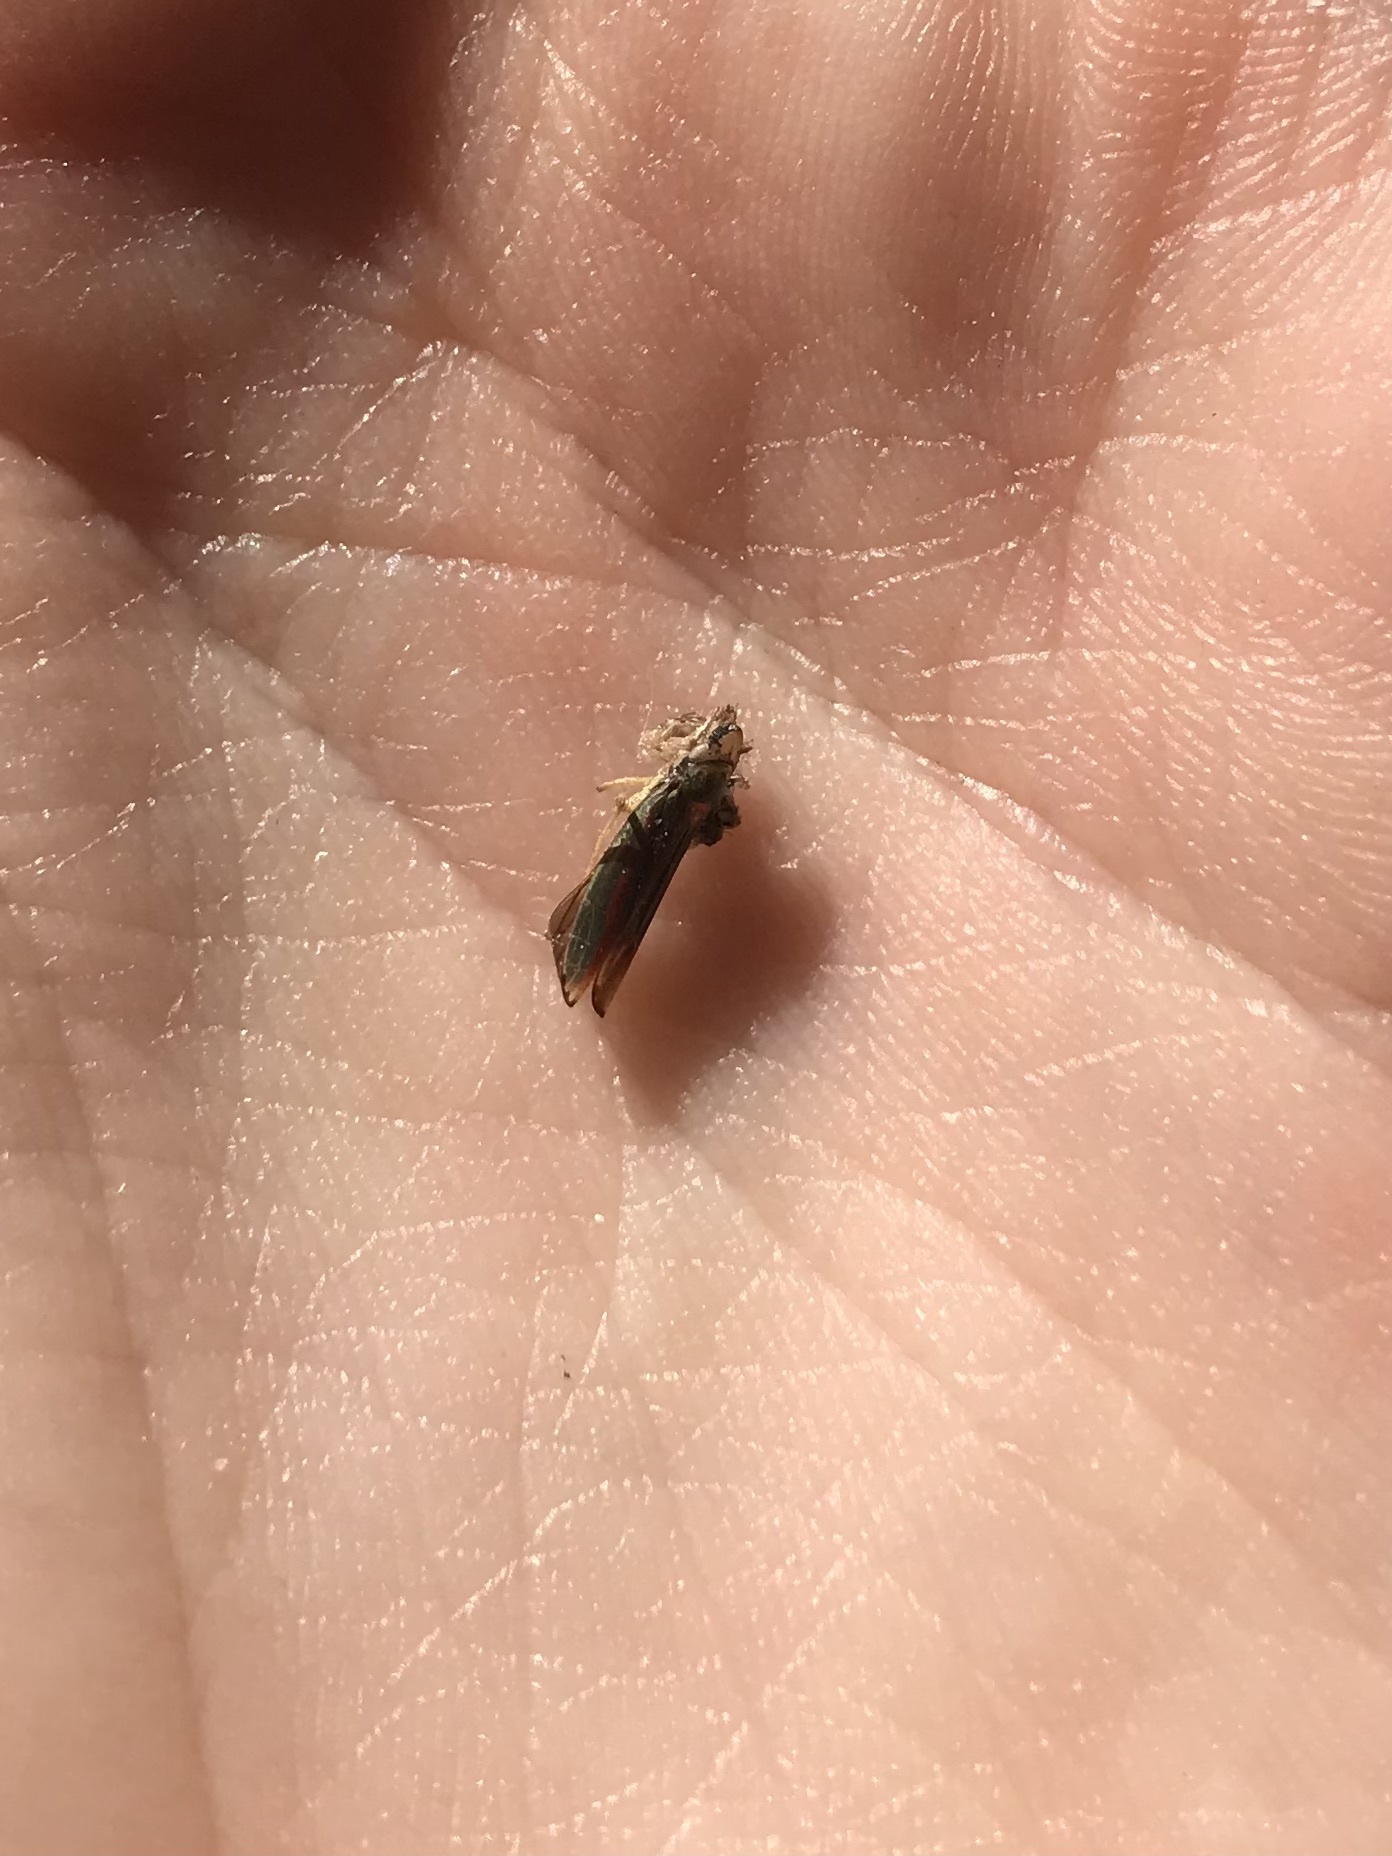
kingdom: Animalia
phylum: Arthropoda
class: Insecta
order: Hemiptera
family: Cicadellidae
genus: Graphocephala
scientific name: Graphocephala coccinea
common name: Candy-striped leafhopper
